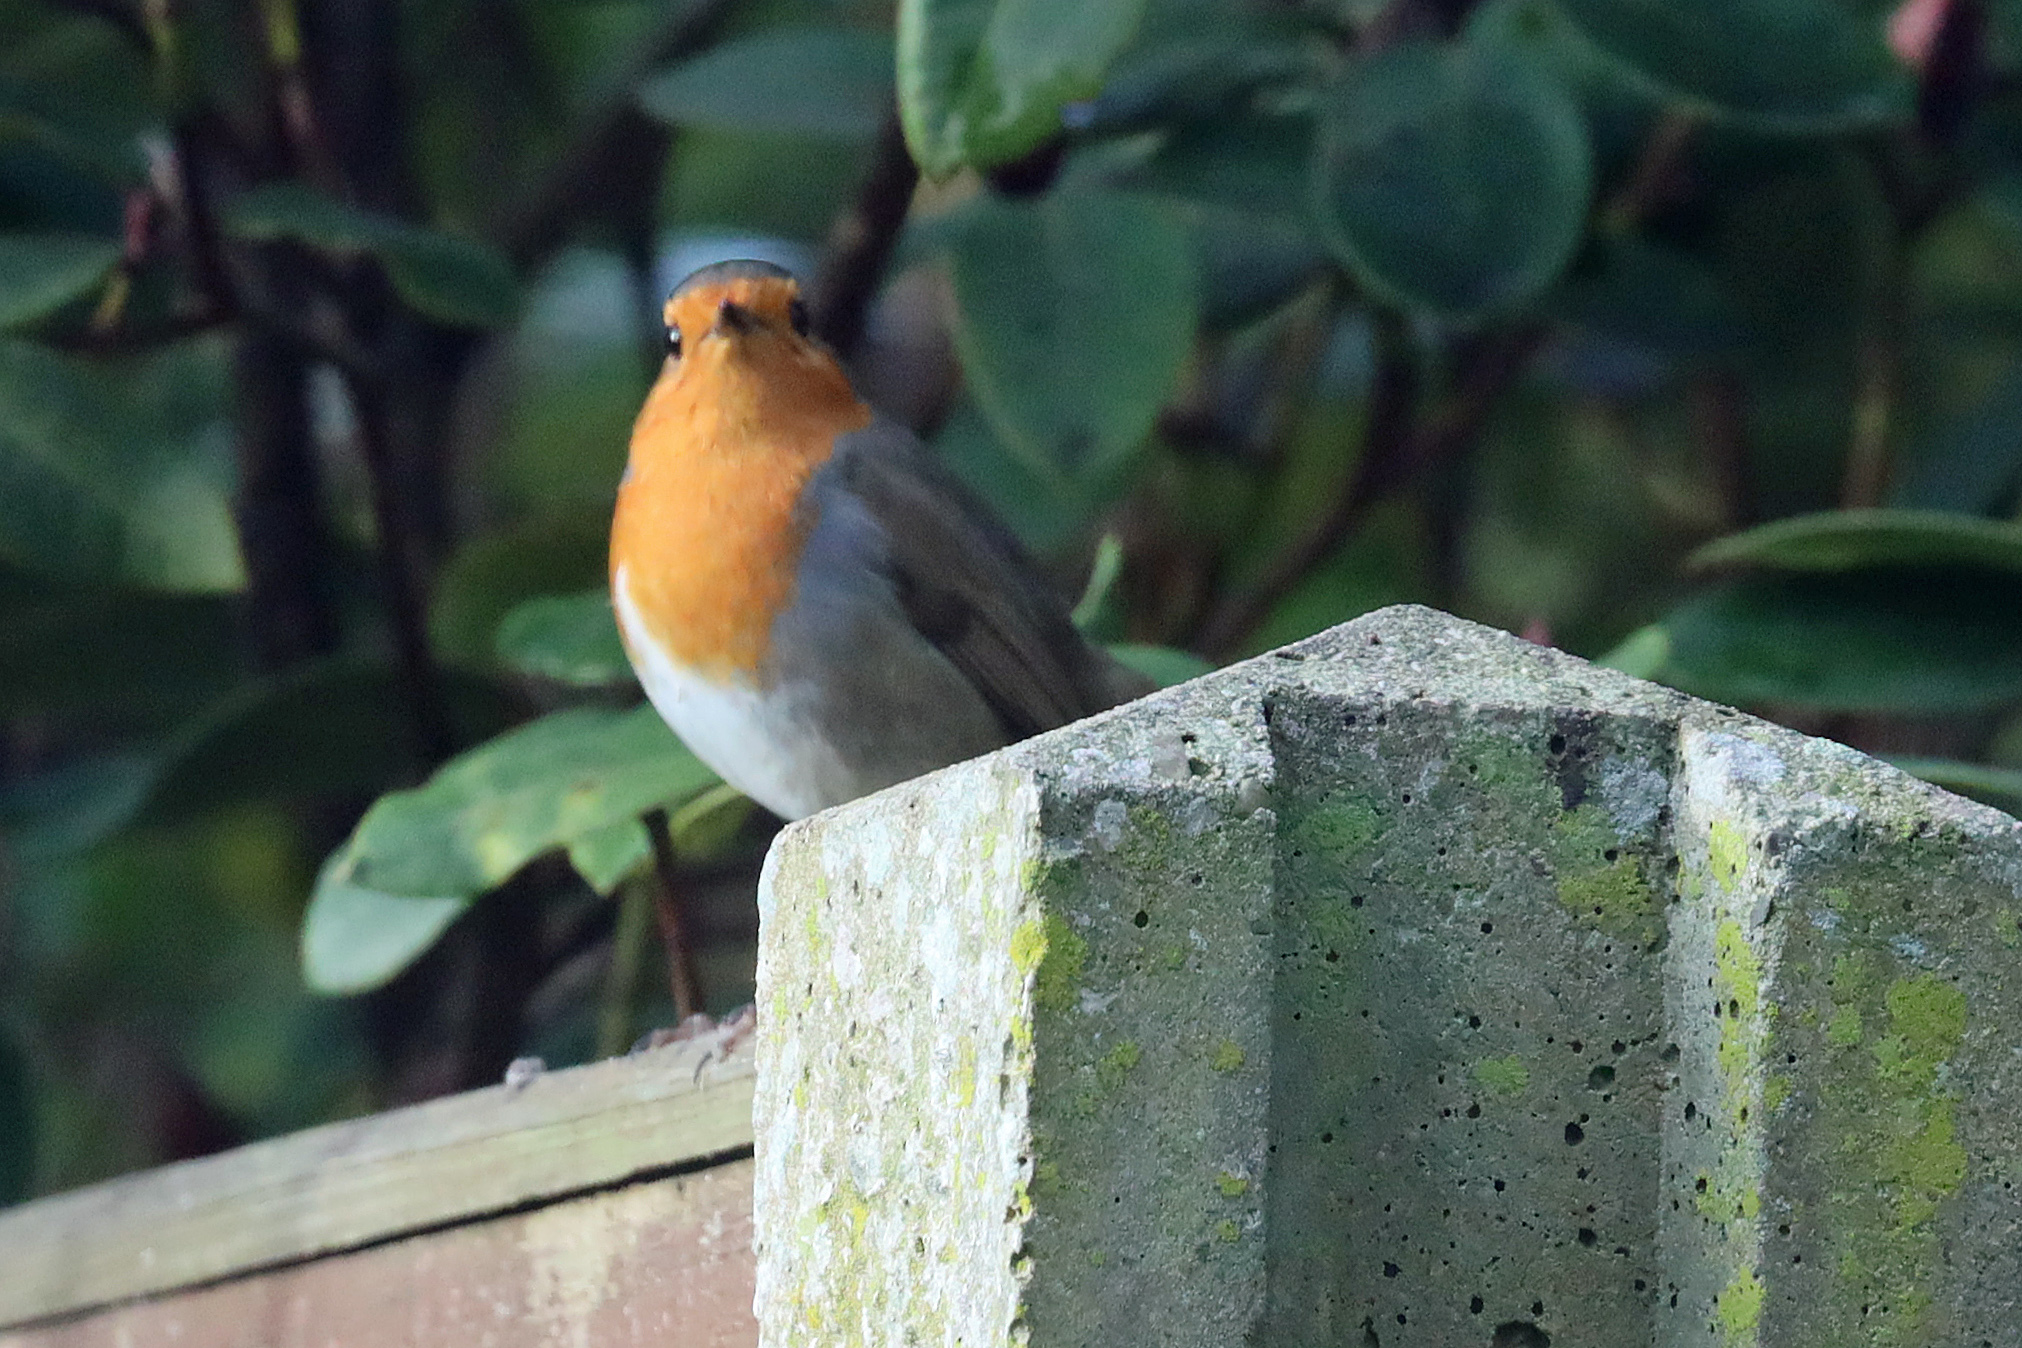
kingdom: Animalia
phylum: Chordata
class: Aves
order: Passeriformes
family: Muscicapidae
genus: Erithacus
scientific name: Erithacus rubecula
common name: European robin
